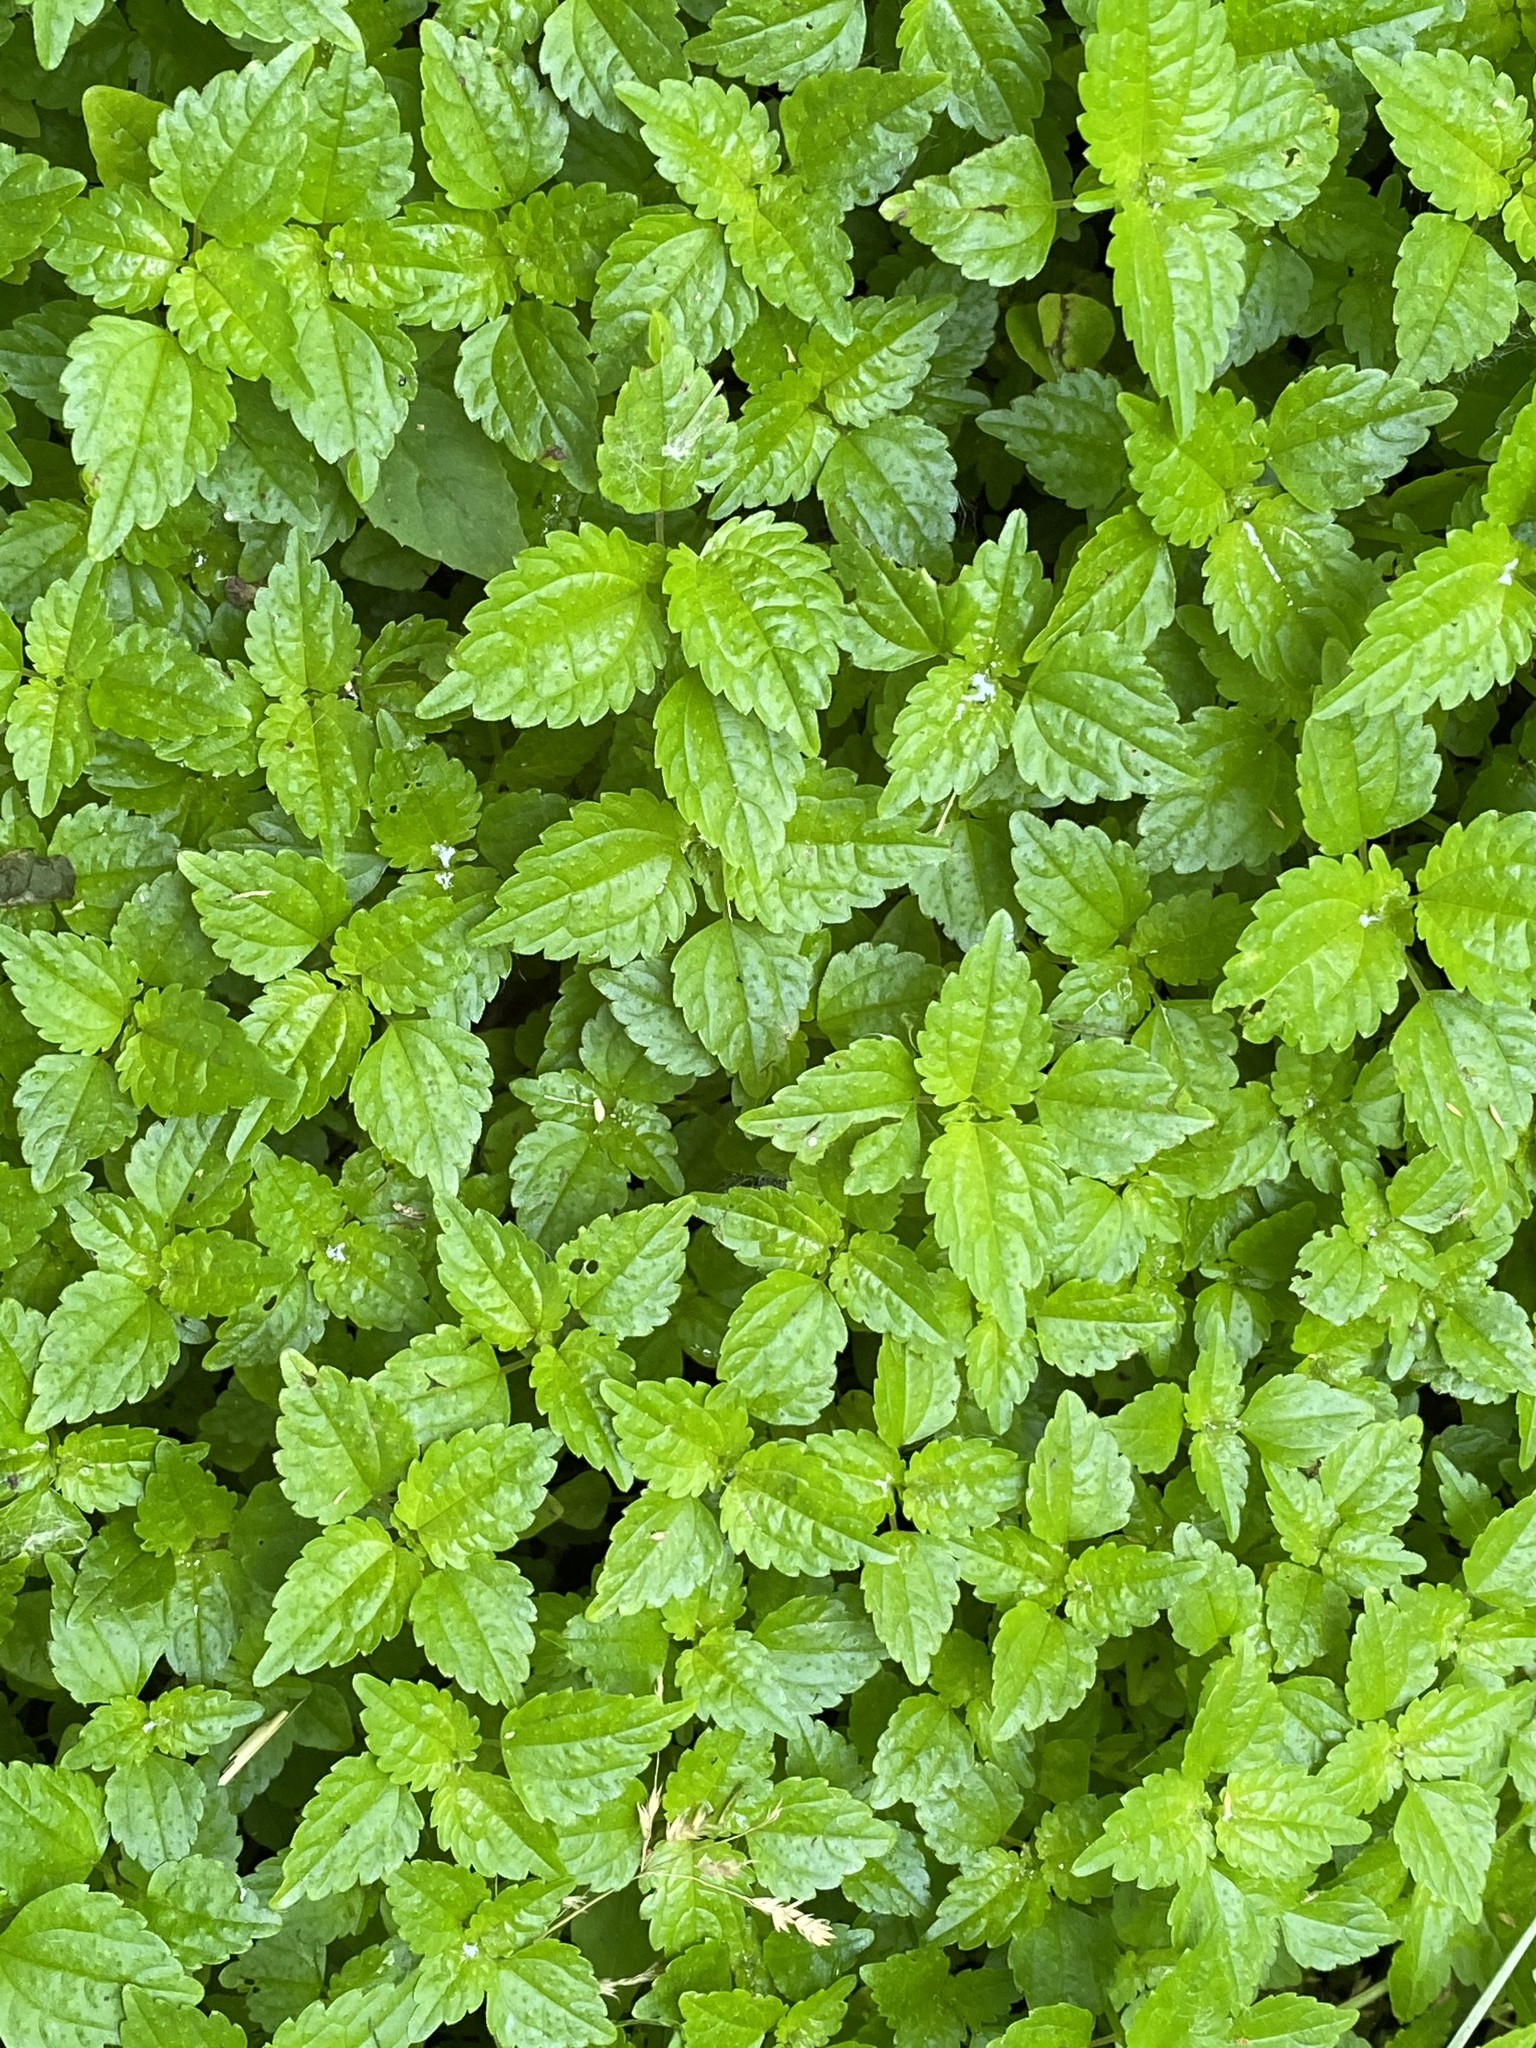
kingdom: Plantae
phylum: Tracheophyta
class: Magnoliopsida
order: Rosales
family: Urticaceae
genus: Pilea
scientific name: Pilea pumila
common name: Clearweed
